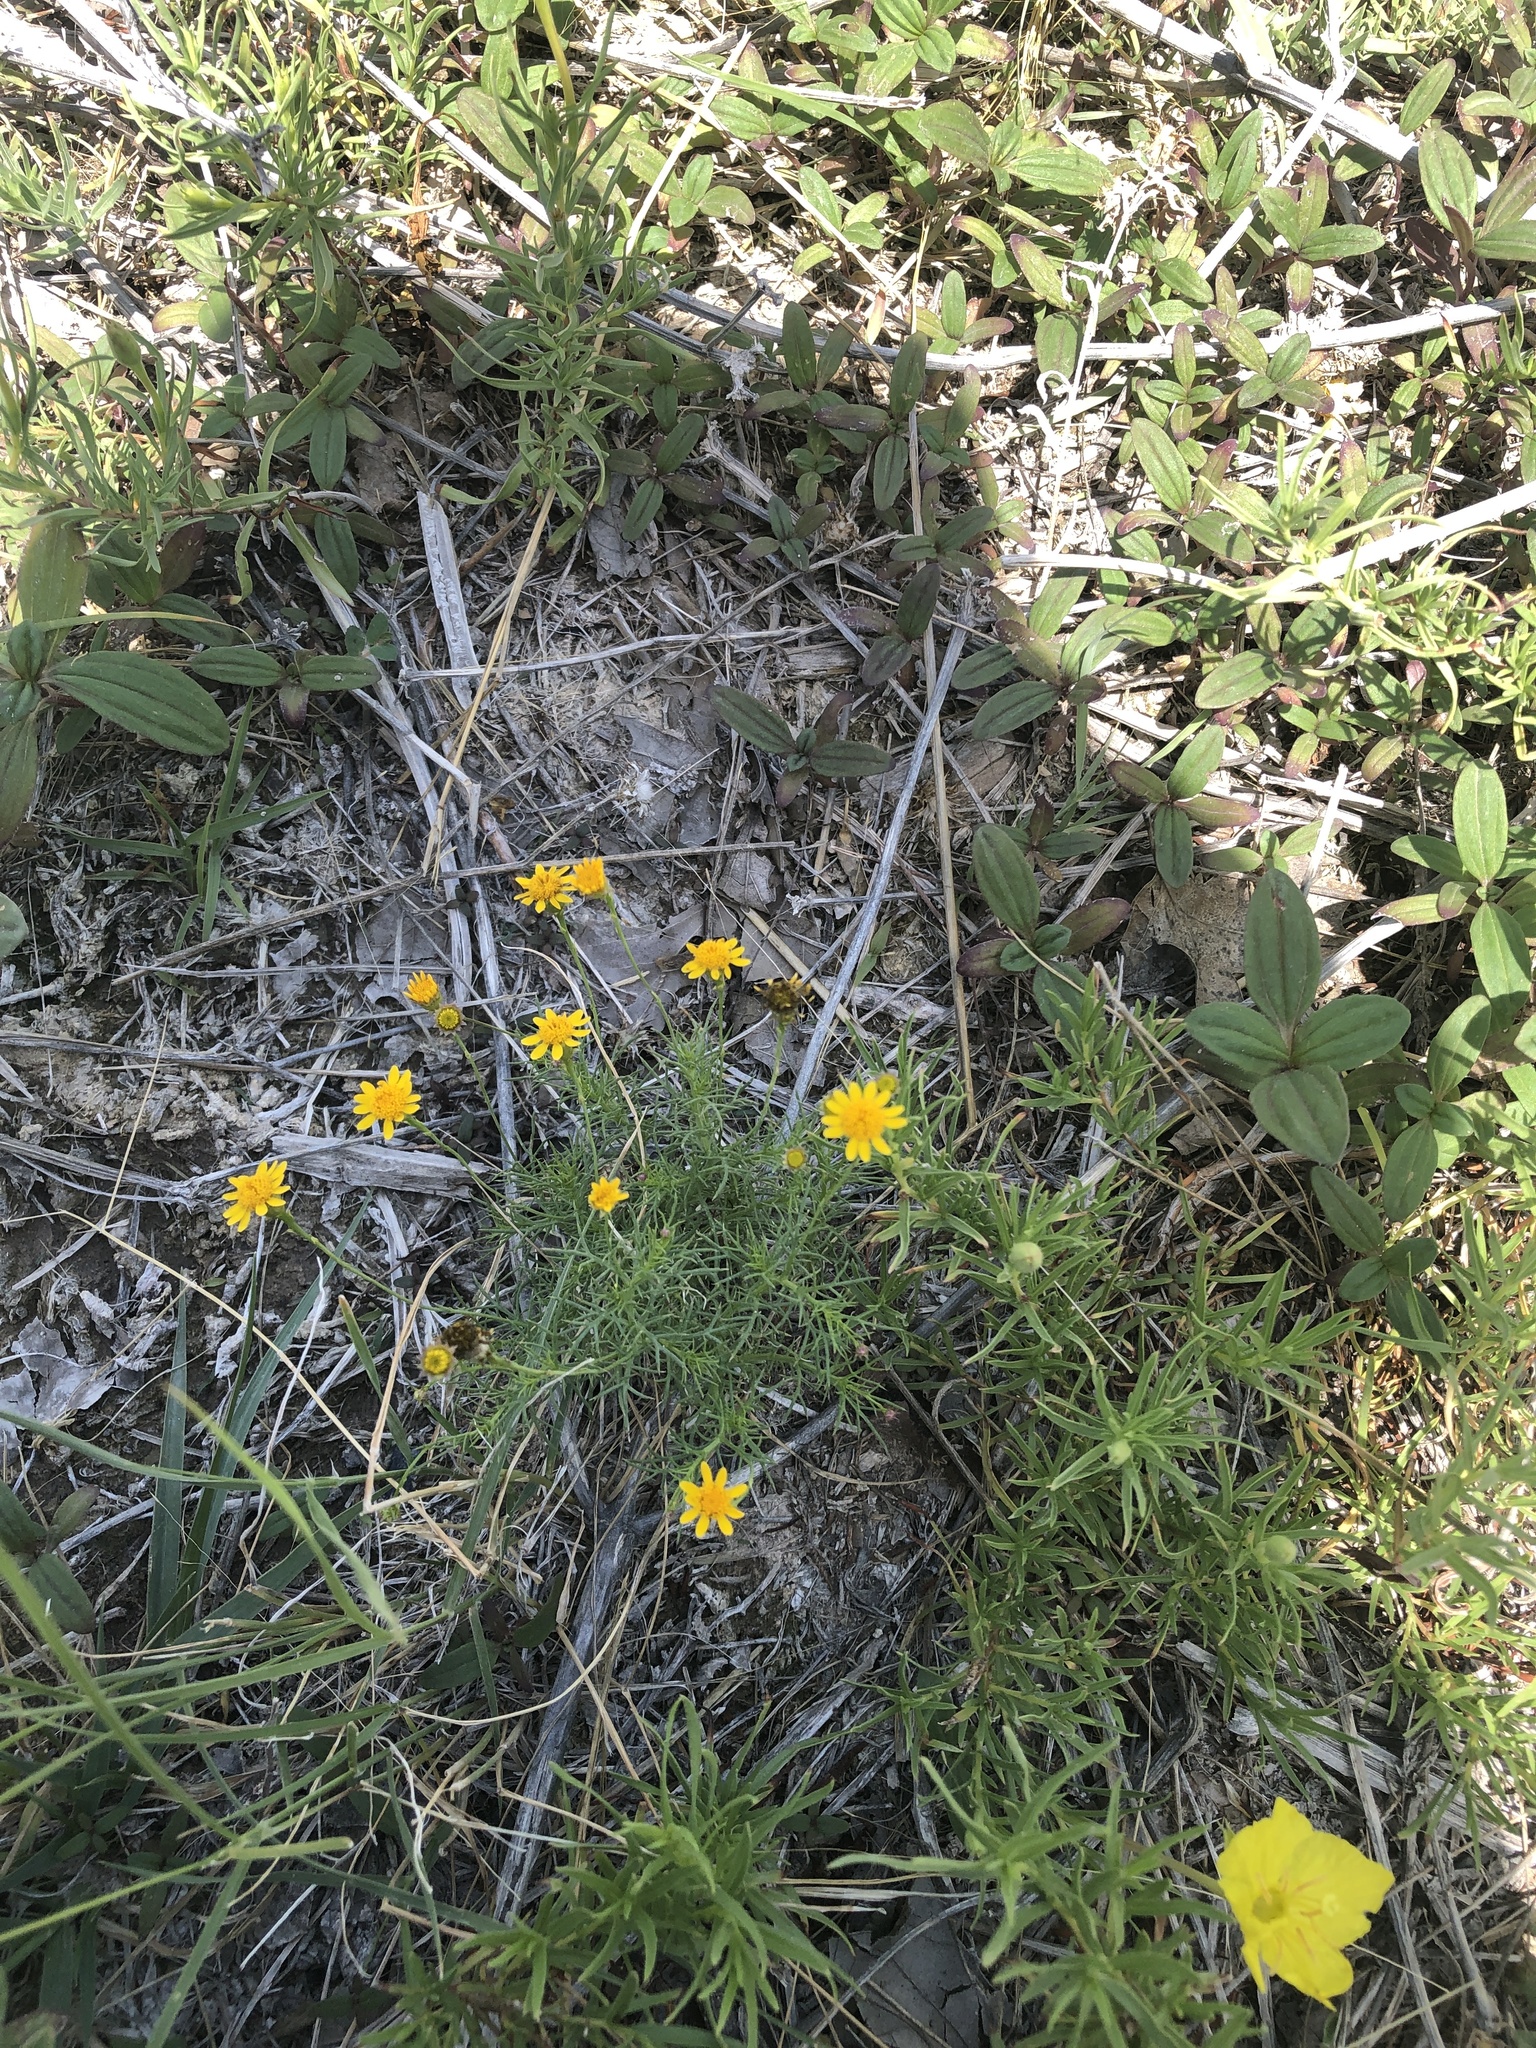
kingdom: Plantae
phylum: Tracheophyta
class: Magnoliopsida
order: Asterales
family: Asteraceae
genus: Thymophylla
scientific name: Thymophylla pentachaeta
